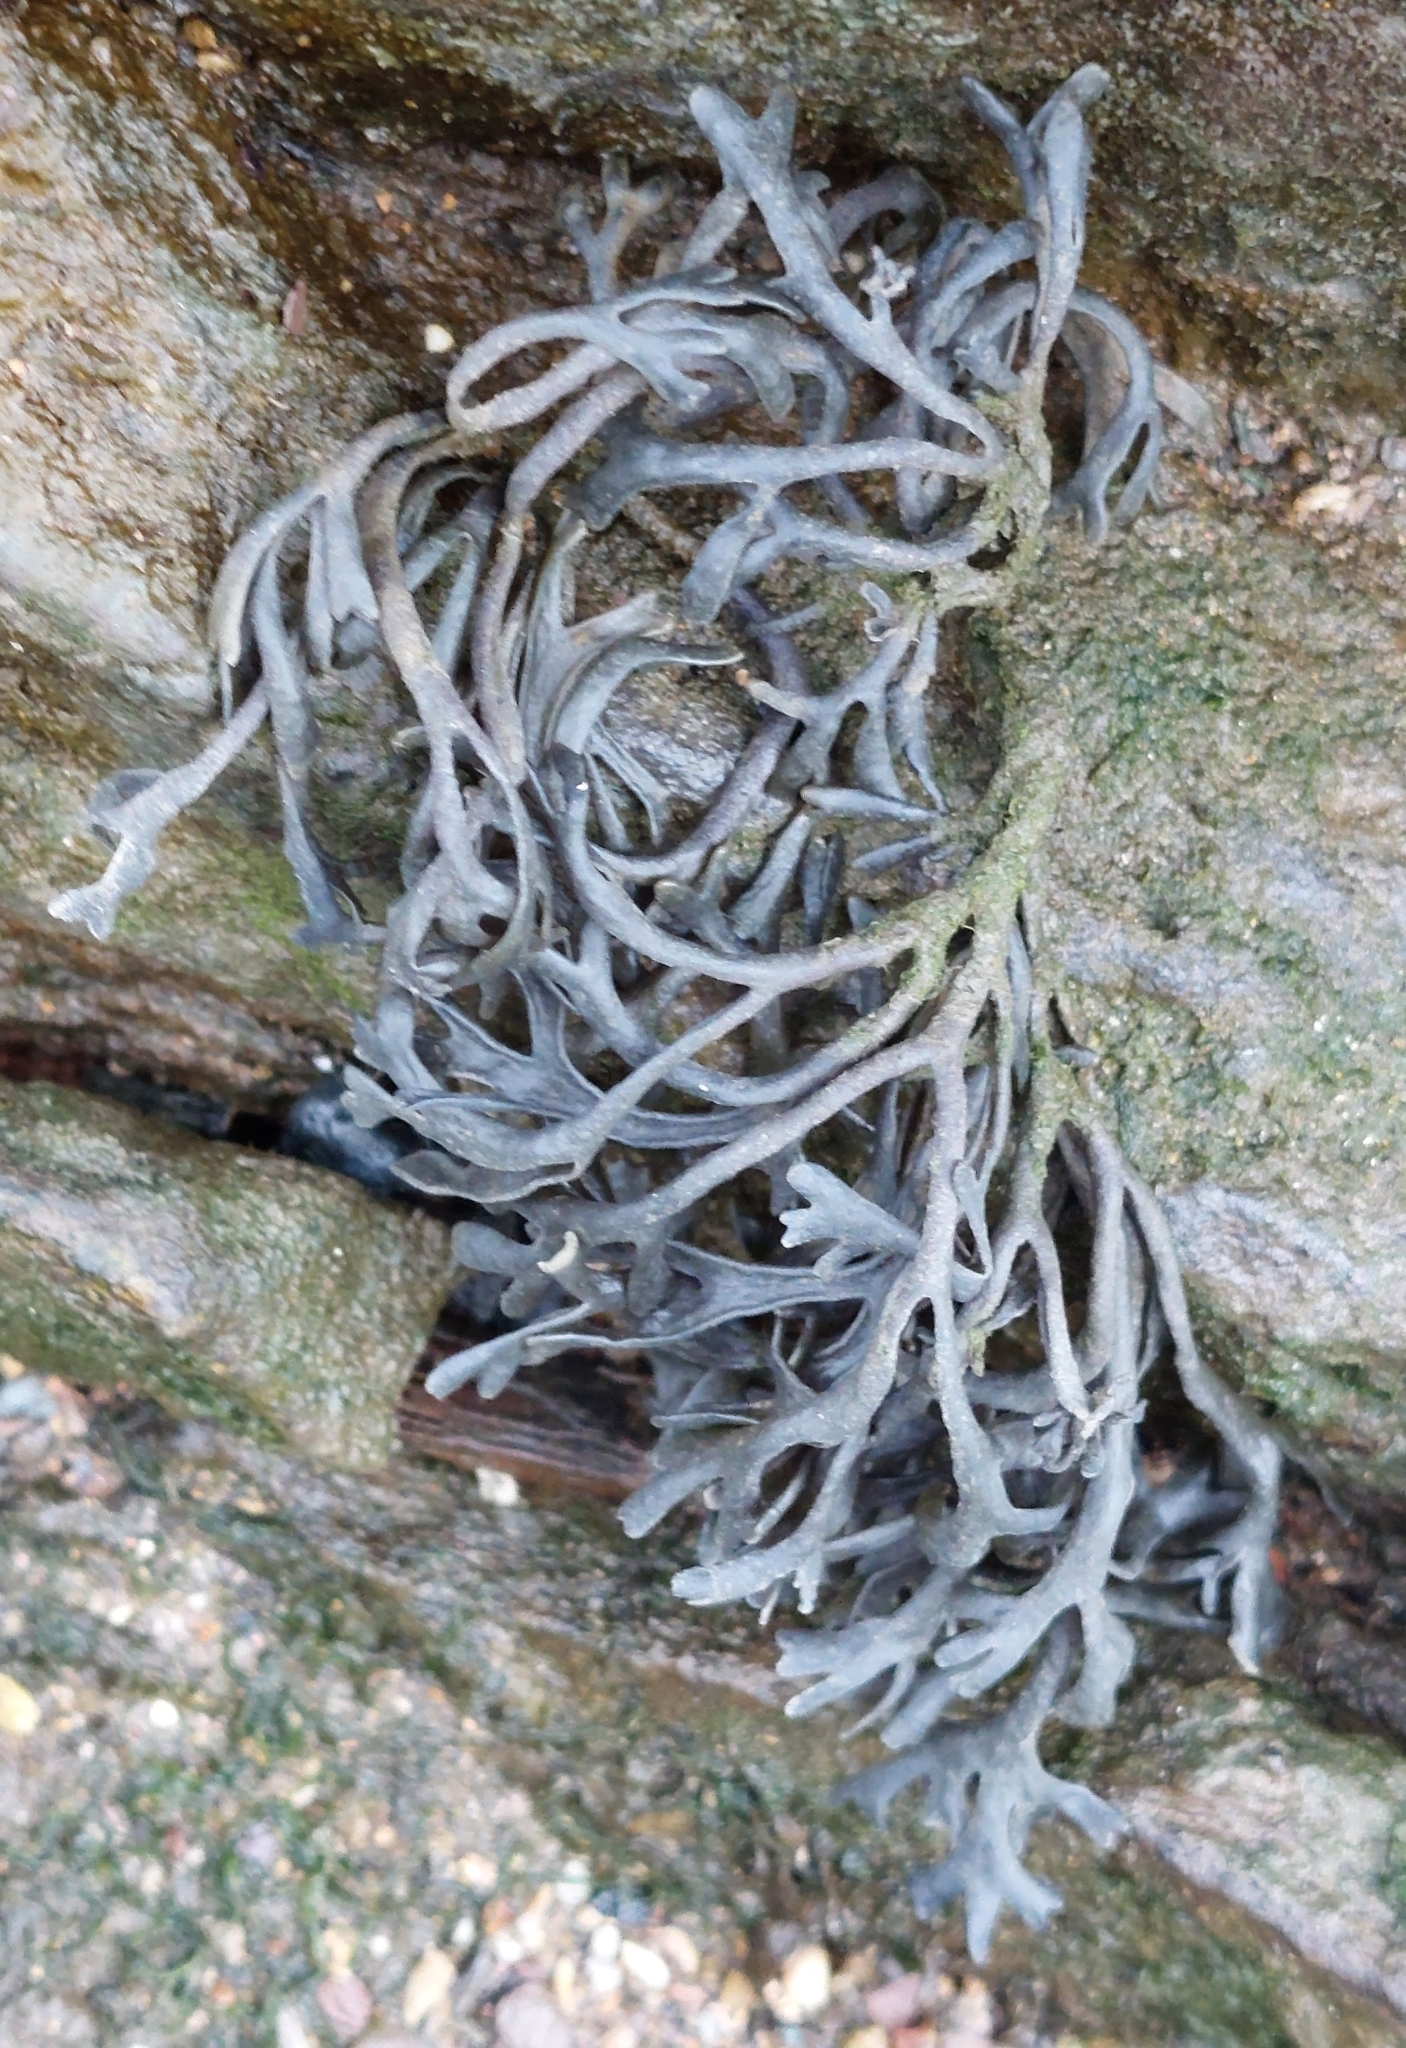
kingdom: Chromista
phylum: Ochrophyta
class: Phaeophyceae
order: Fucales
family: Fucaceae
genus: Pelvetia
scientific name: Pelvetia canaliculata
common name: Channelled wrack
